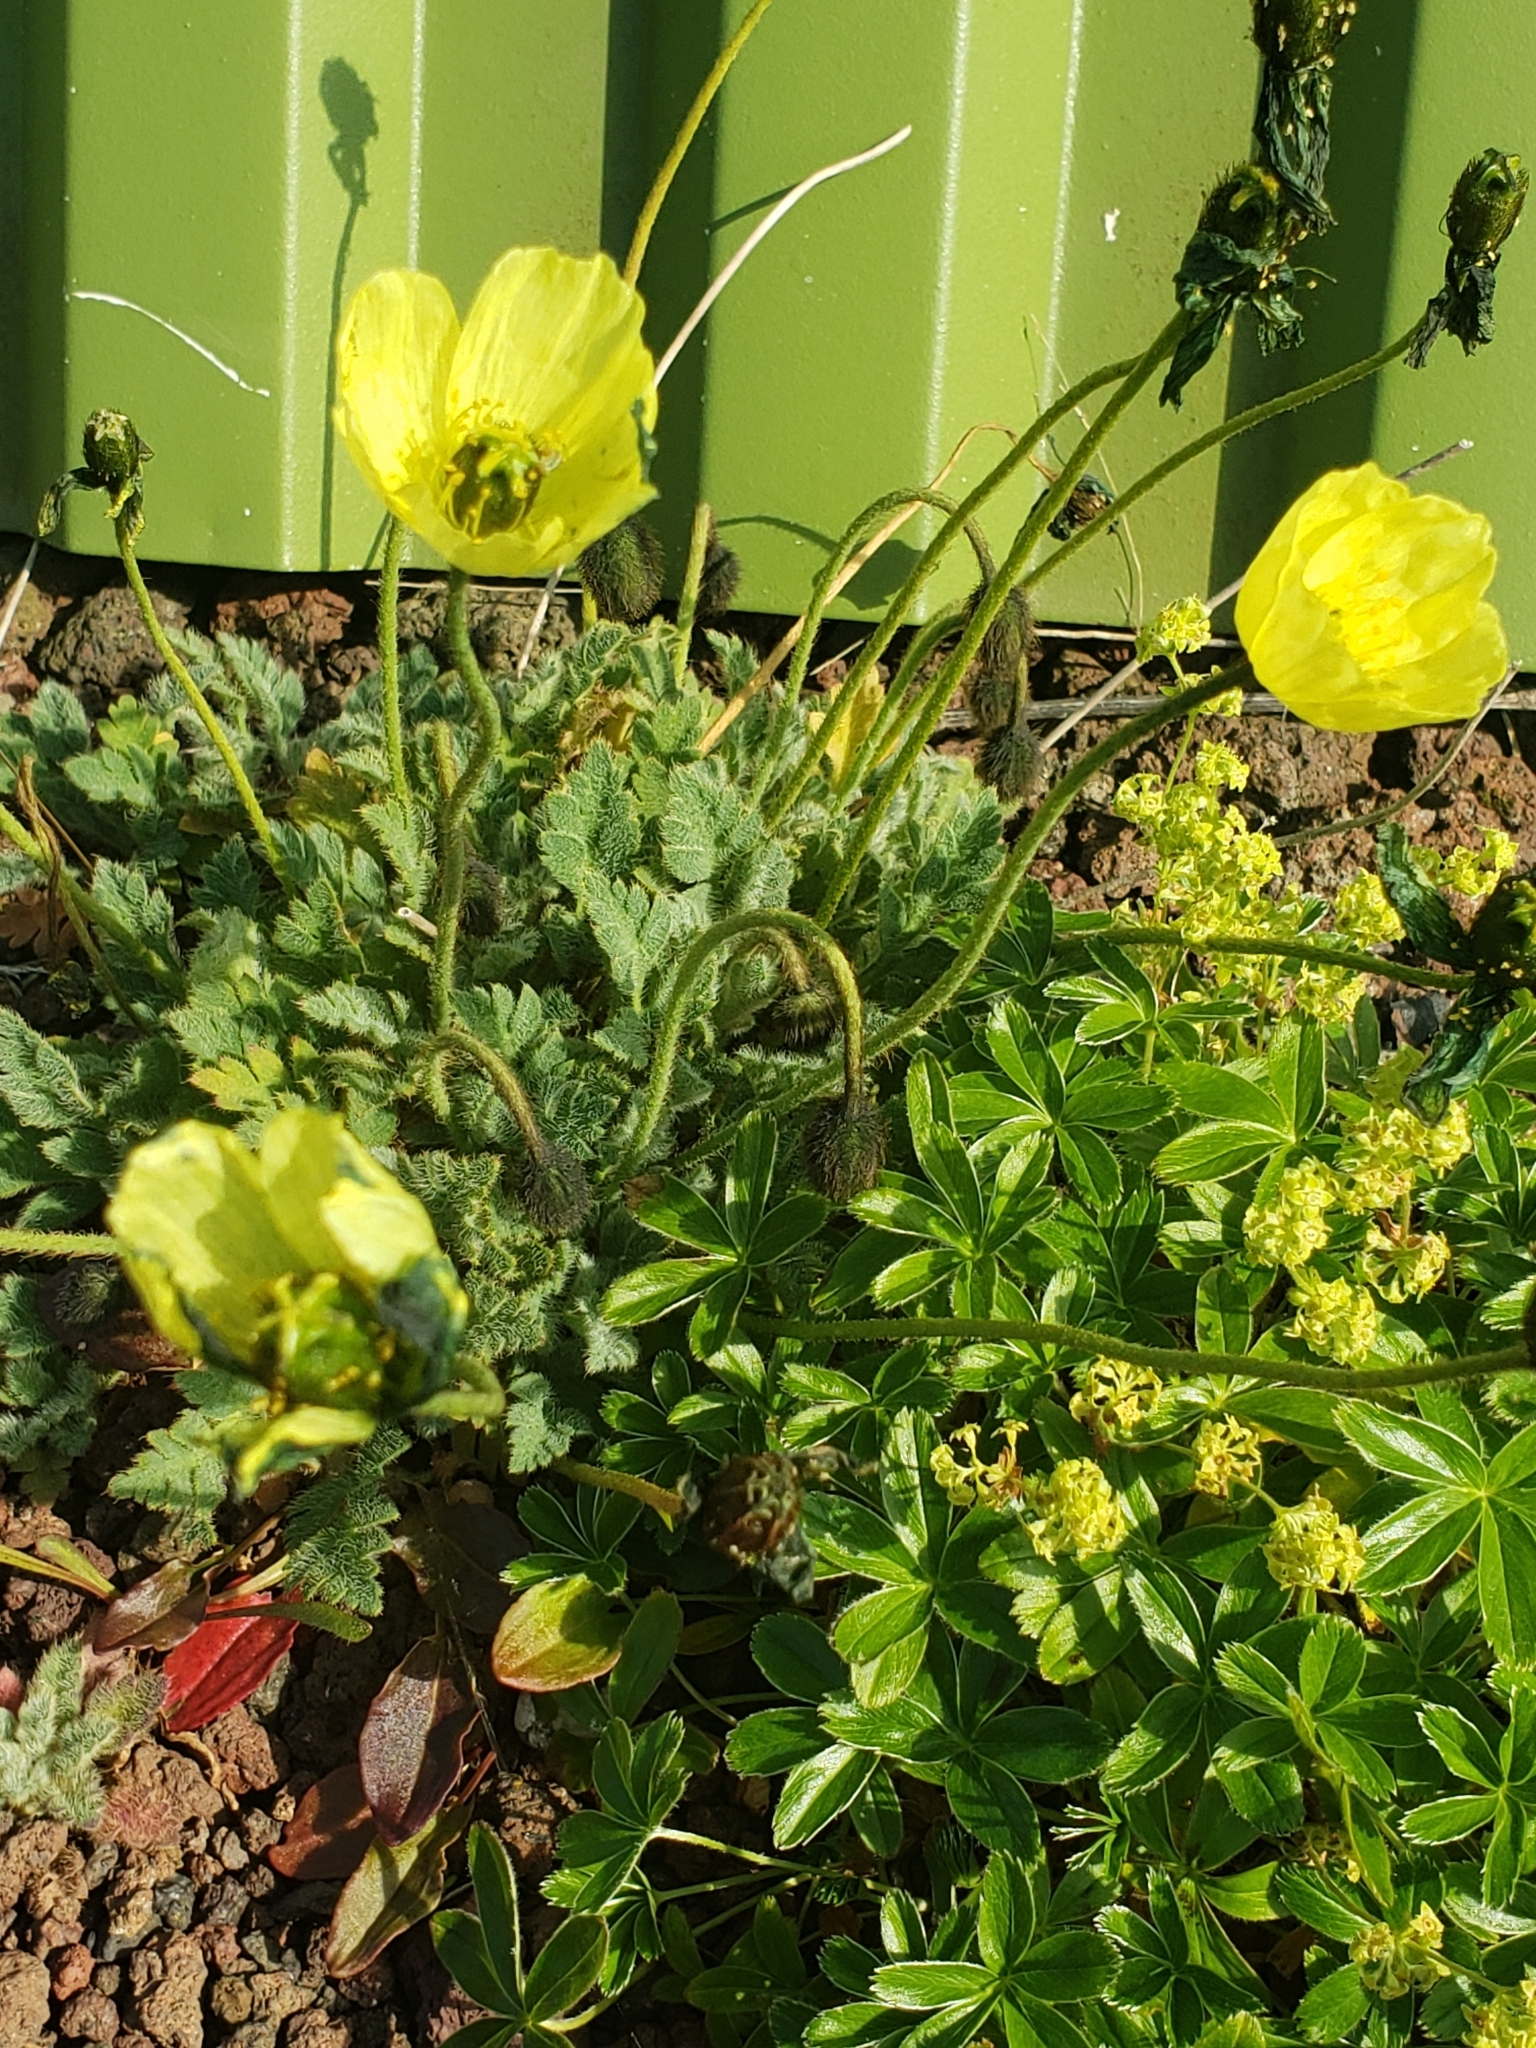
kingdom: Plantae
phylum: Tracheophyta
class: Magnoliopsida
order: Ranunculales
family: Papaveraceae
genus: Papaver
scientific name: Papaver radicatum
